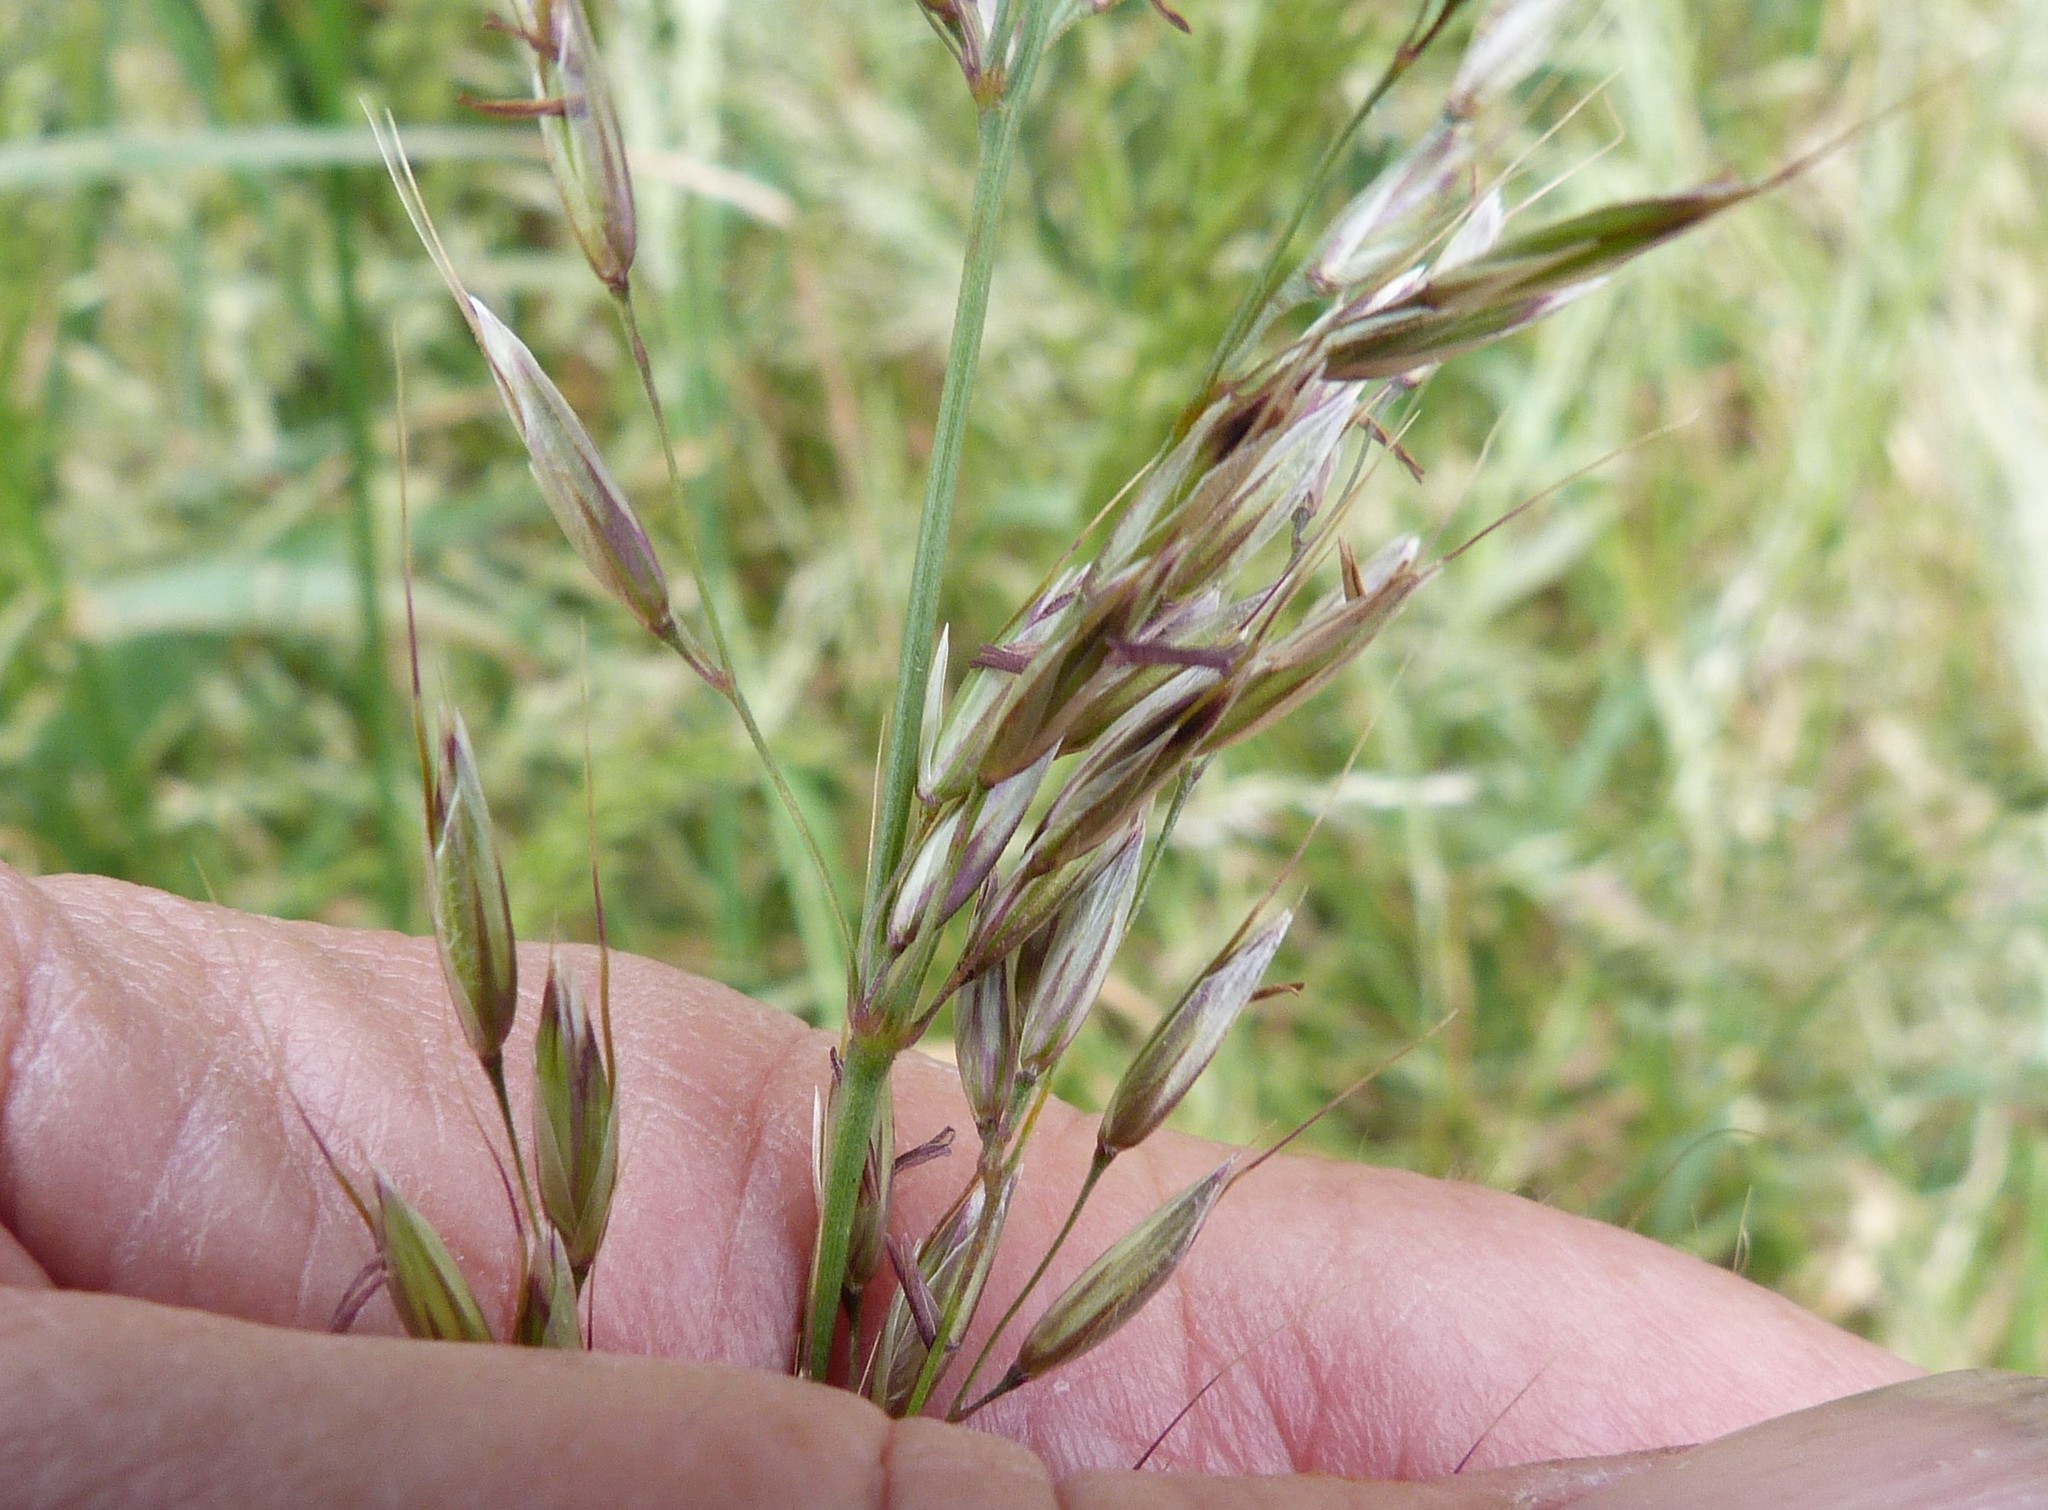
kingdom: Plantae
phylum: Tracheophyta
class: Liliopsida
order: Poales
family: Poaceae
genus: Arrhenatherum
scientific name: Arrhenatherum elatius
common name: Tall oatgrass
